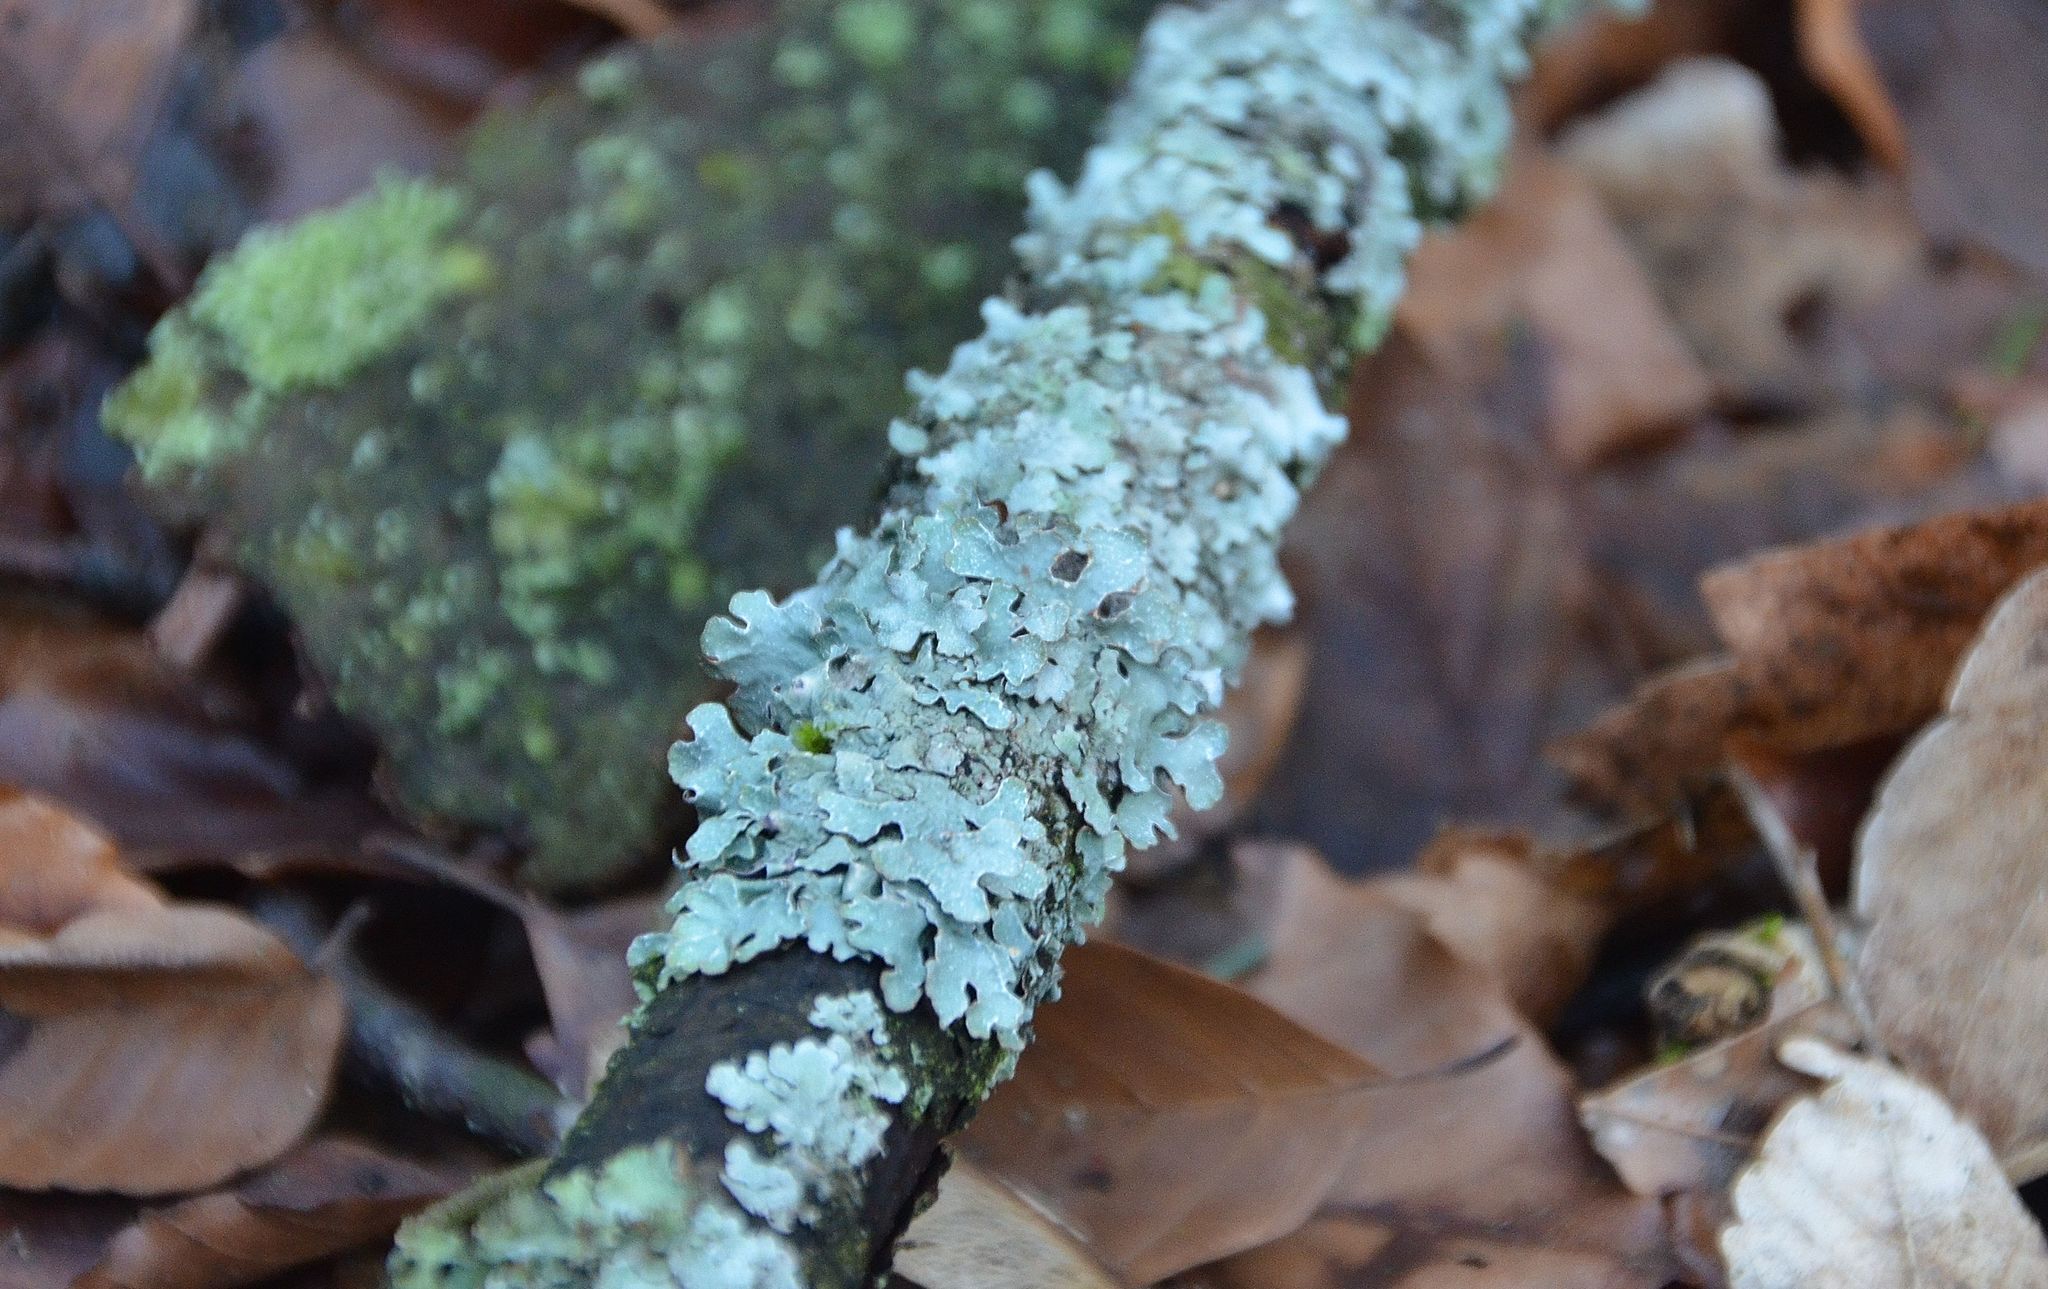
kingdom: Fungi
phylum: Ascomycota
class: Lecanoromycetes
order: Lecanorales
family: Parmeliaceae
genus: Parmelia
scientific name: Parmelia sulcata
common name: Netted shield lichen
